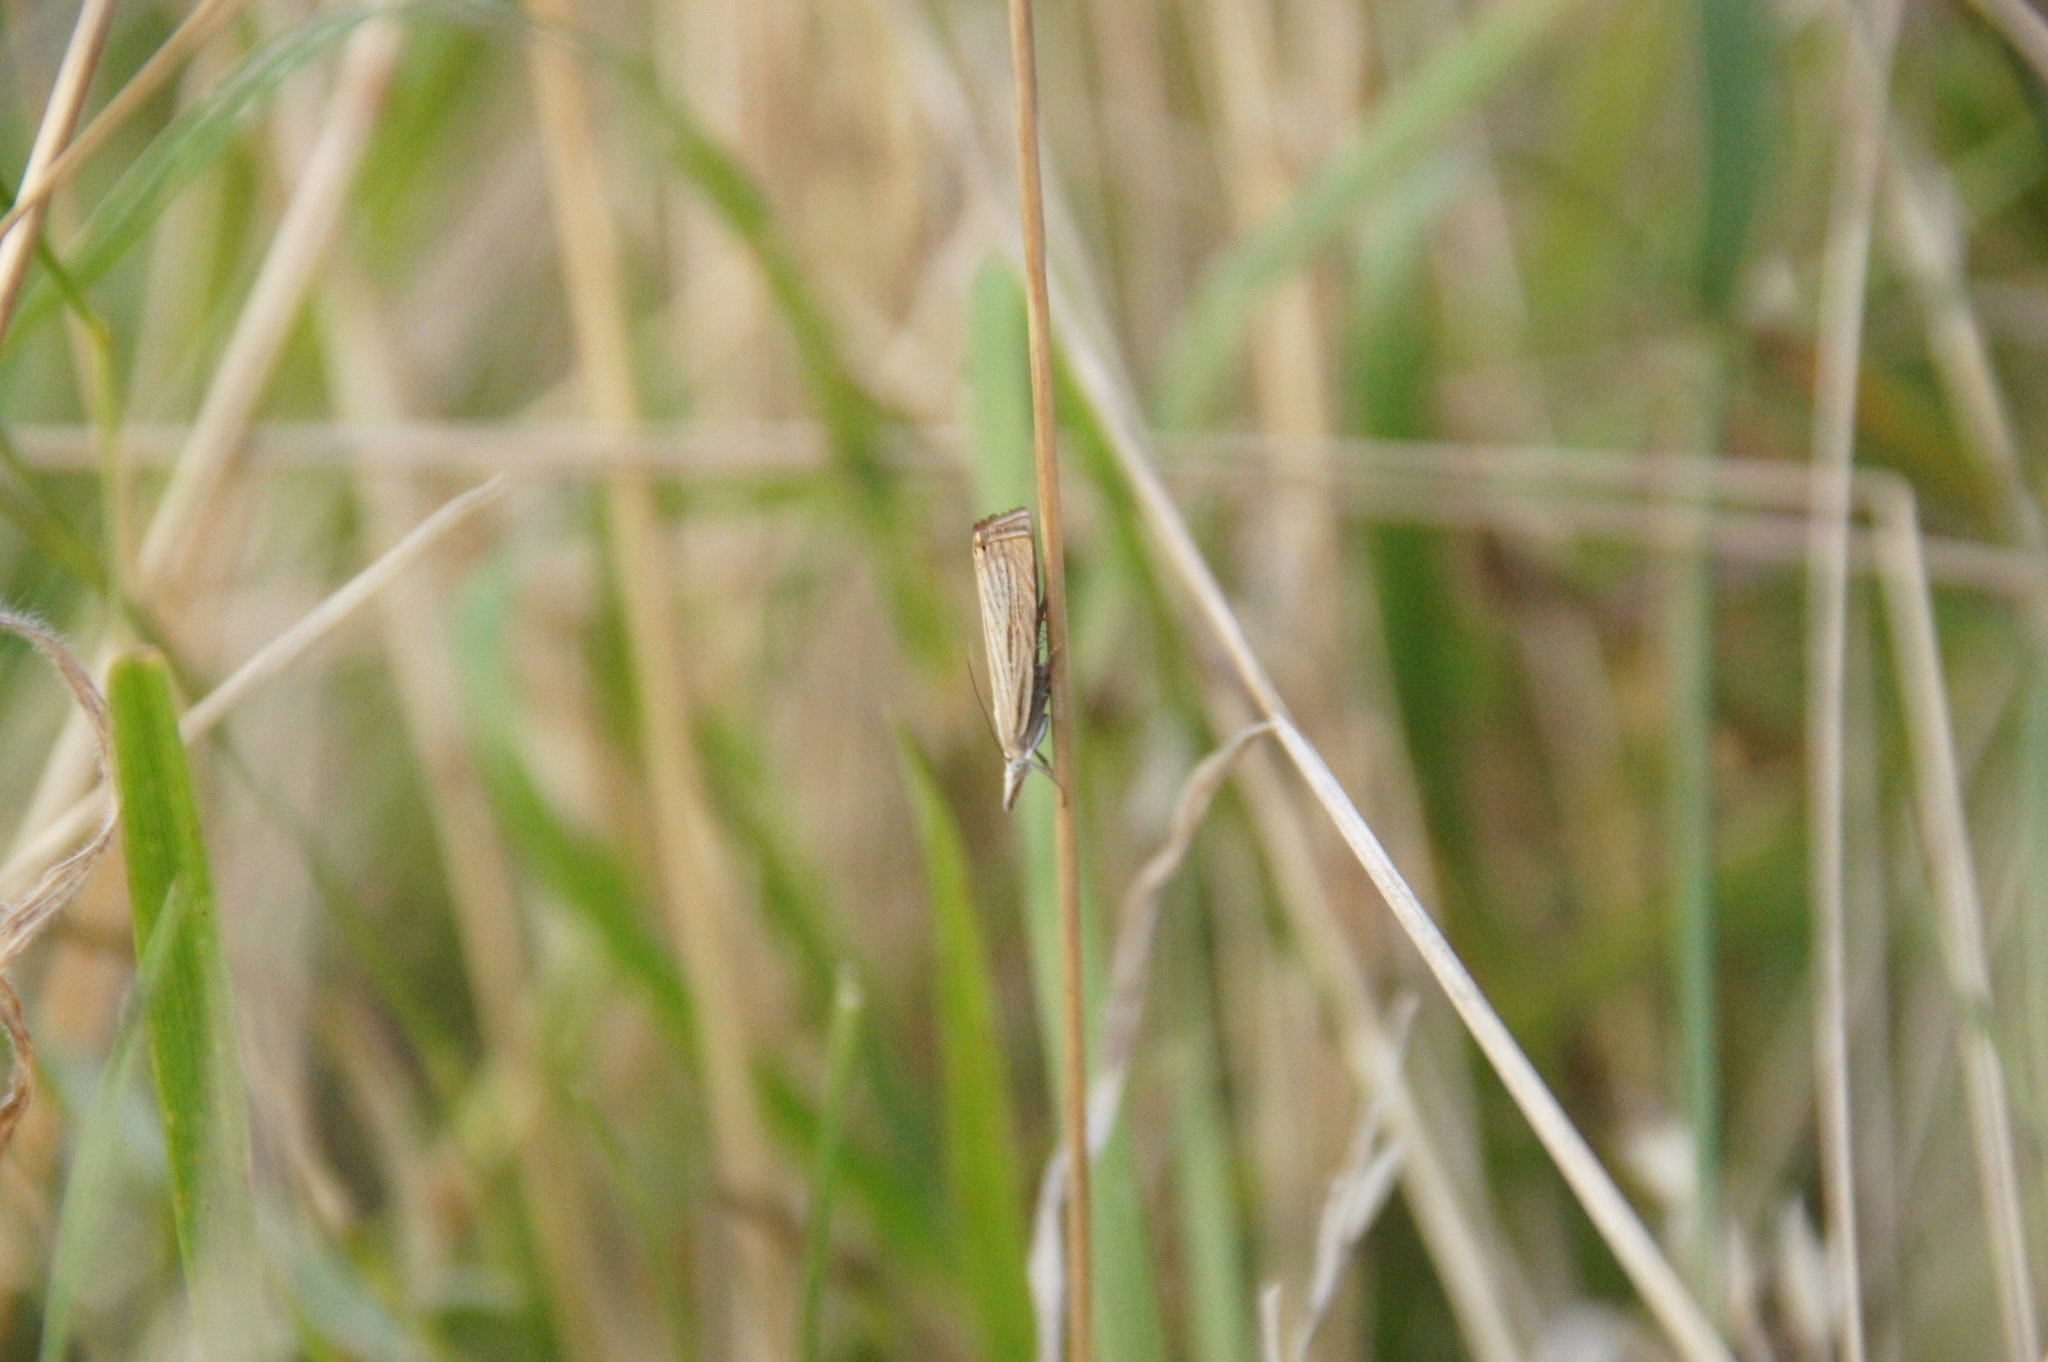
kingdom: Animalia
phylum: Arthropoda
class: Insecta
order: Lepidoptera
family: Crambidae
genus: Chrysoteuchia
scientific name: Chrysoteuchia culmella
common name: Garden grass-veneer
